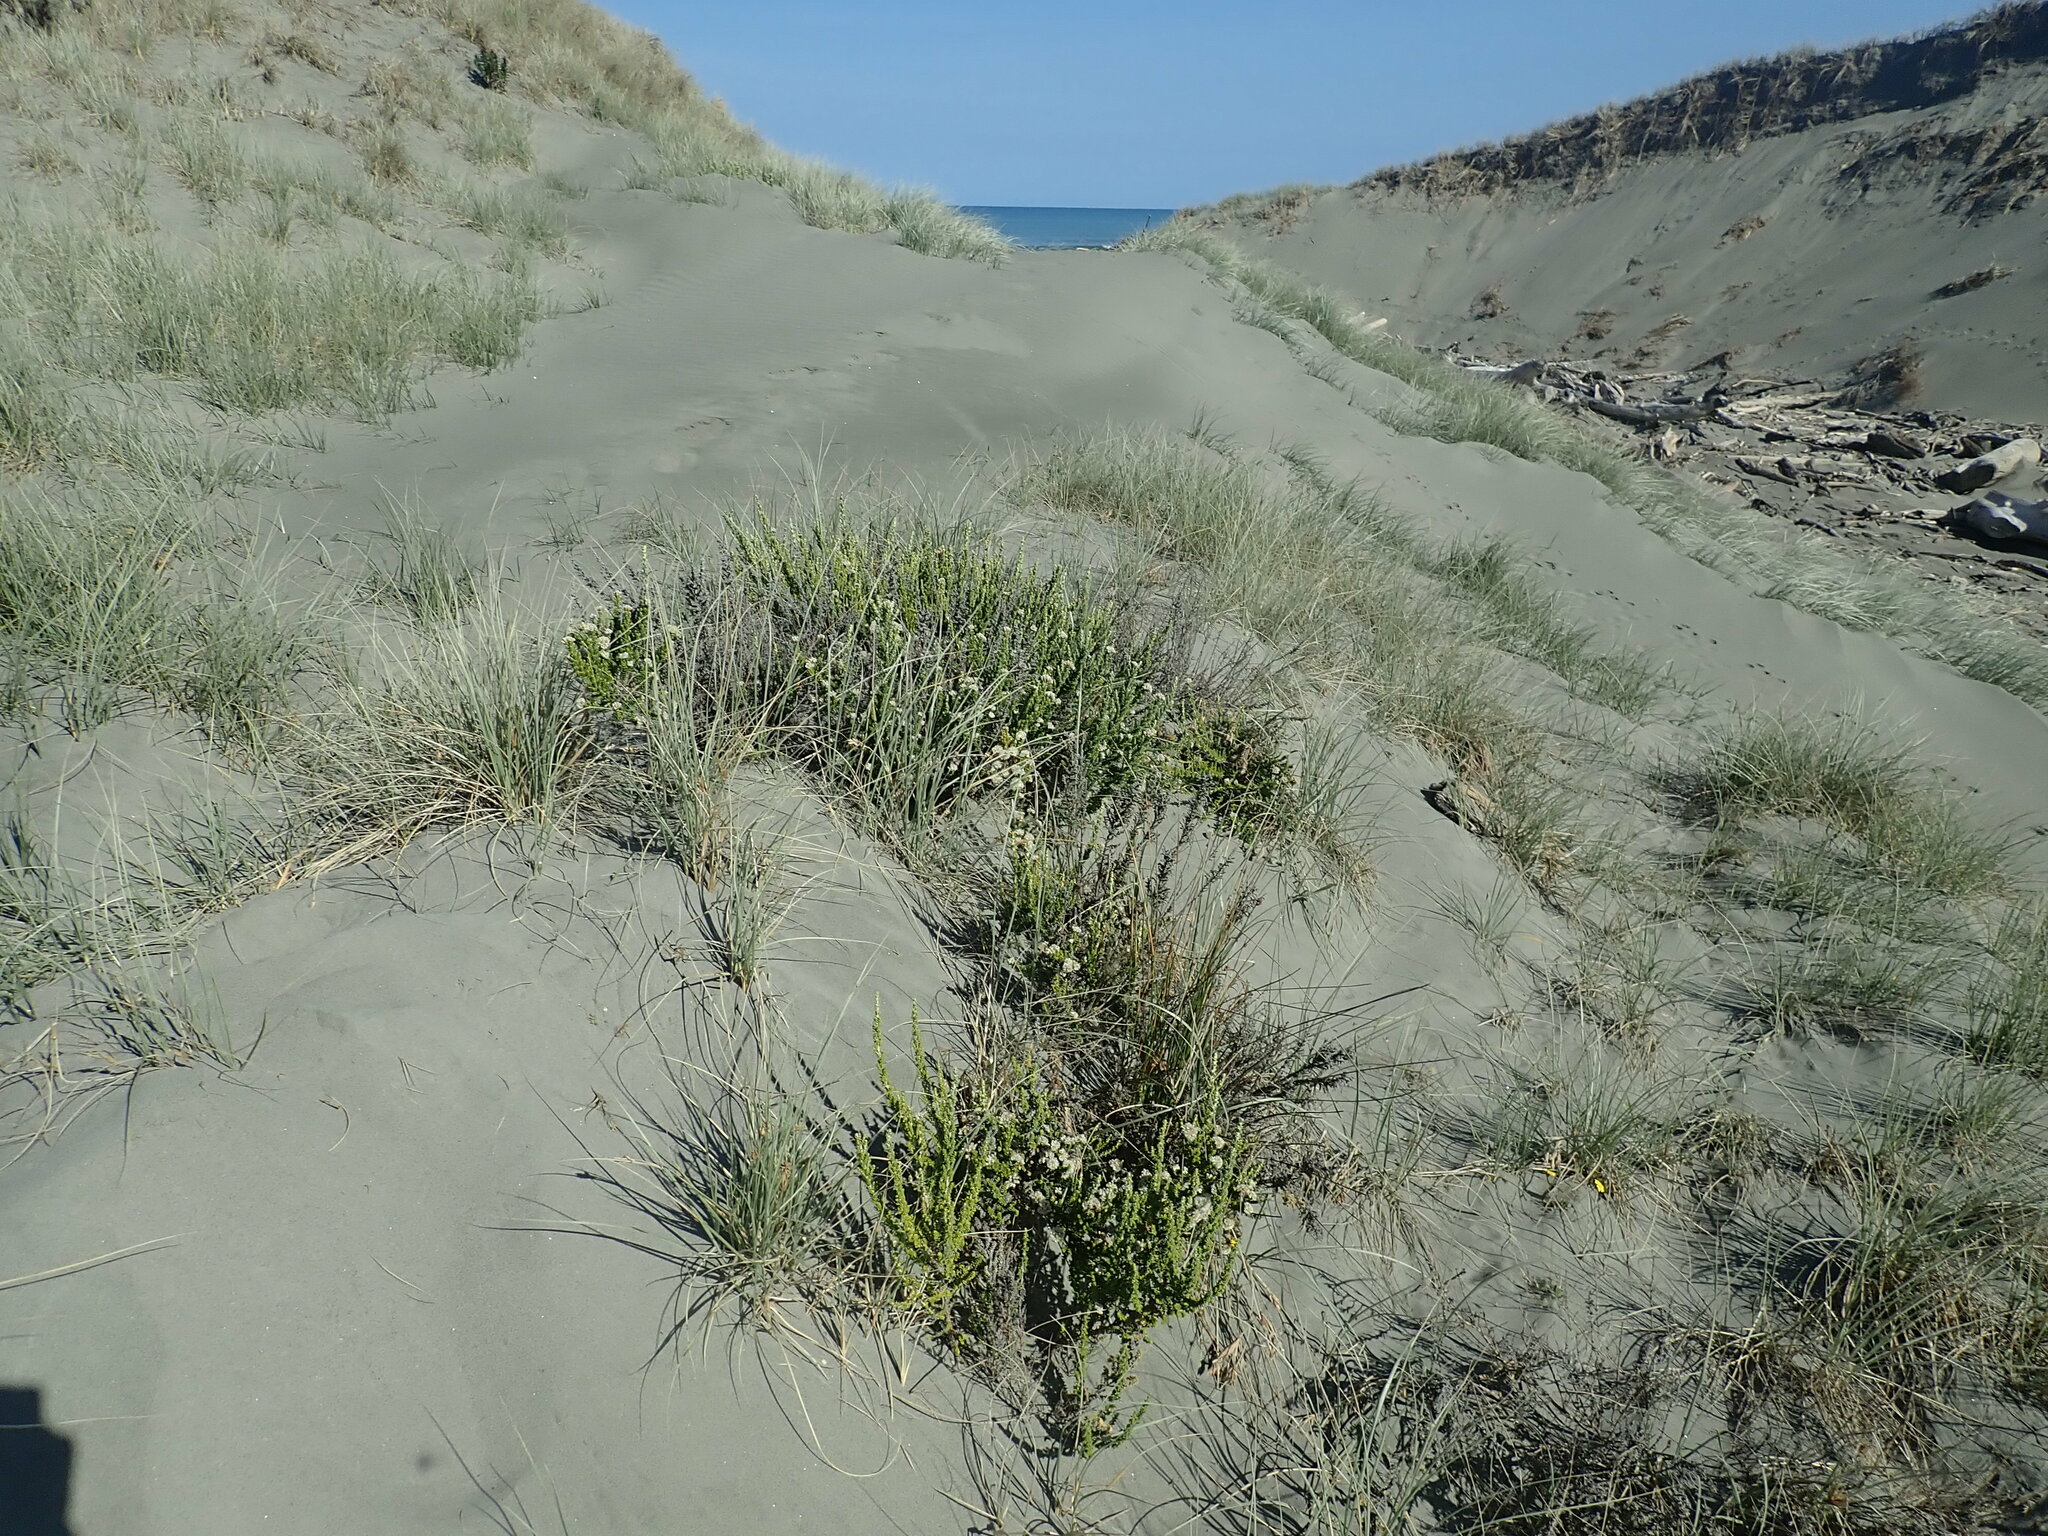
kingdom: Plantae
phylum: Tracheophyta
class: Magnoliopsida
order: Asterales
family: Asteraceae
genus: Ozothamnus
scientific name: Ozothamnus leptophyllus
